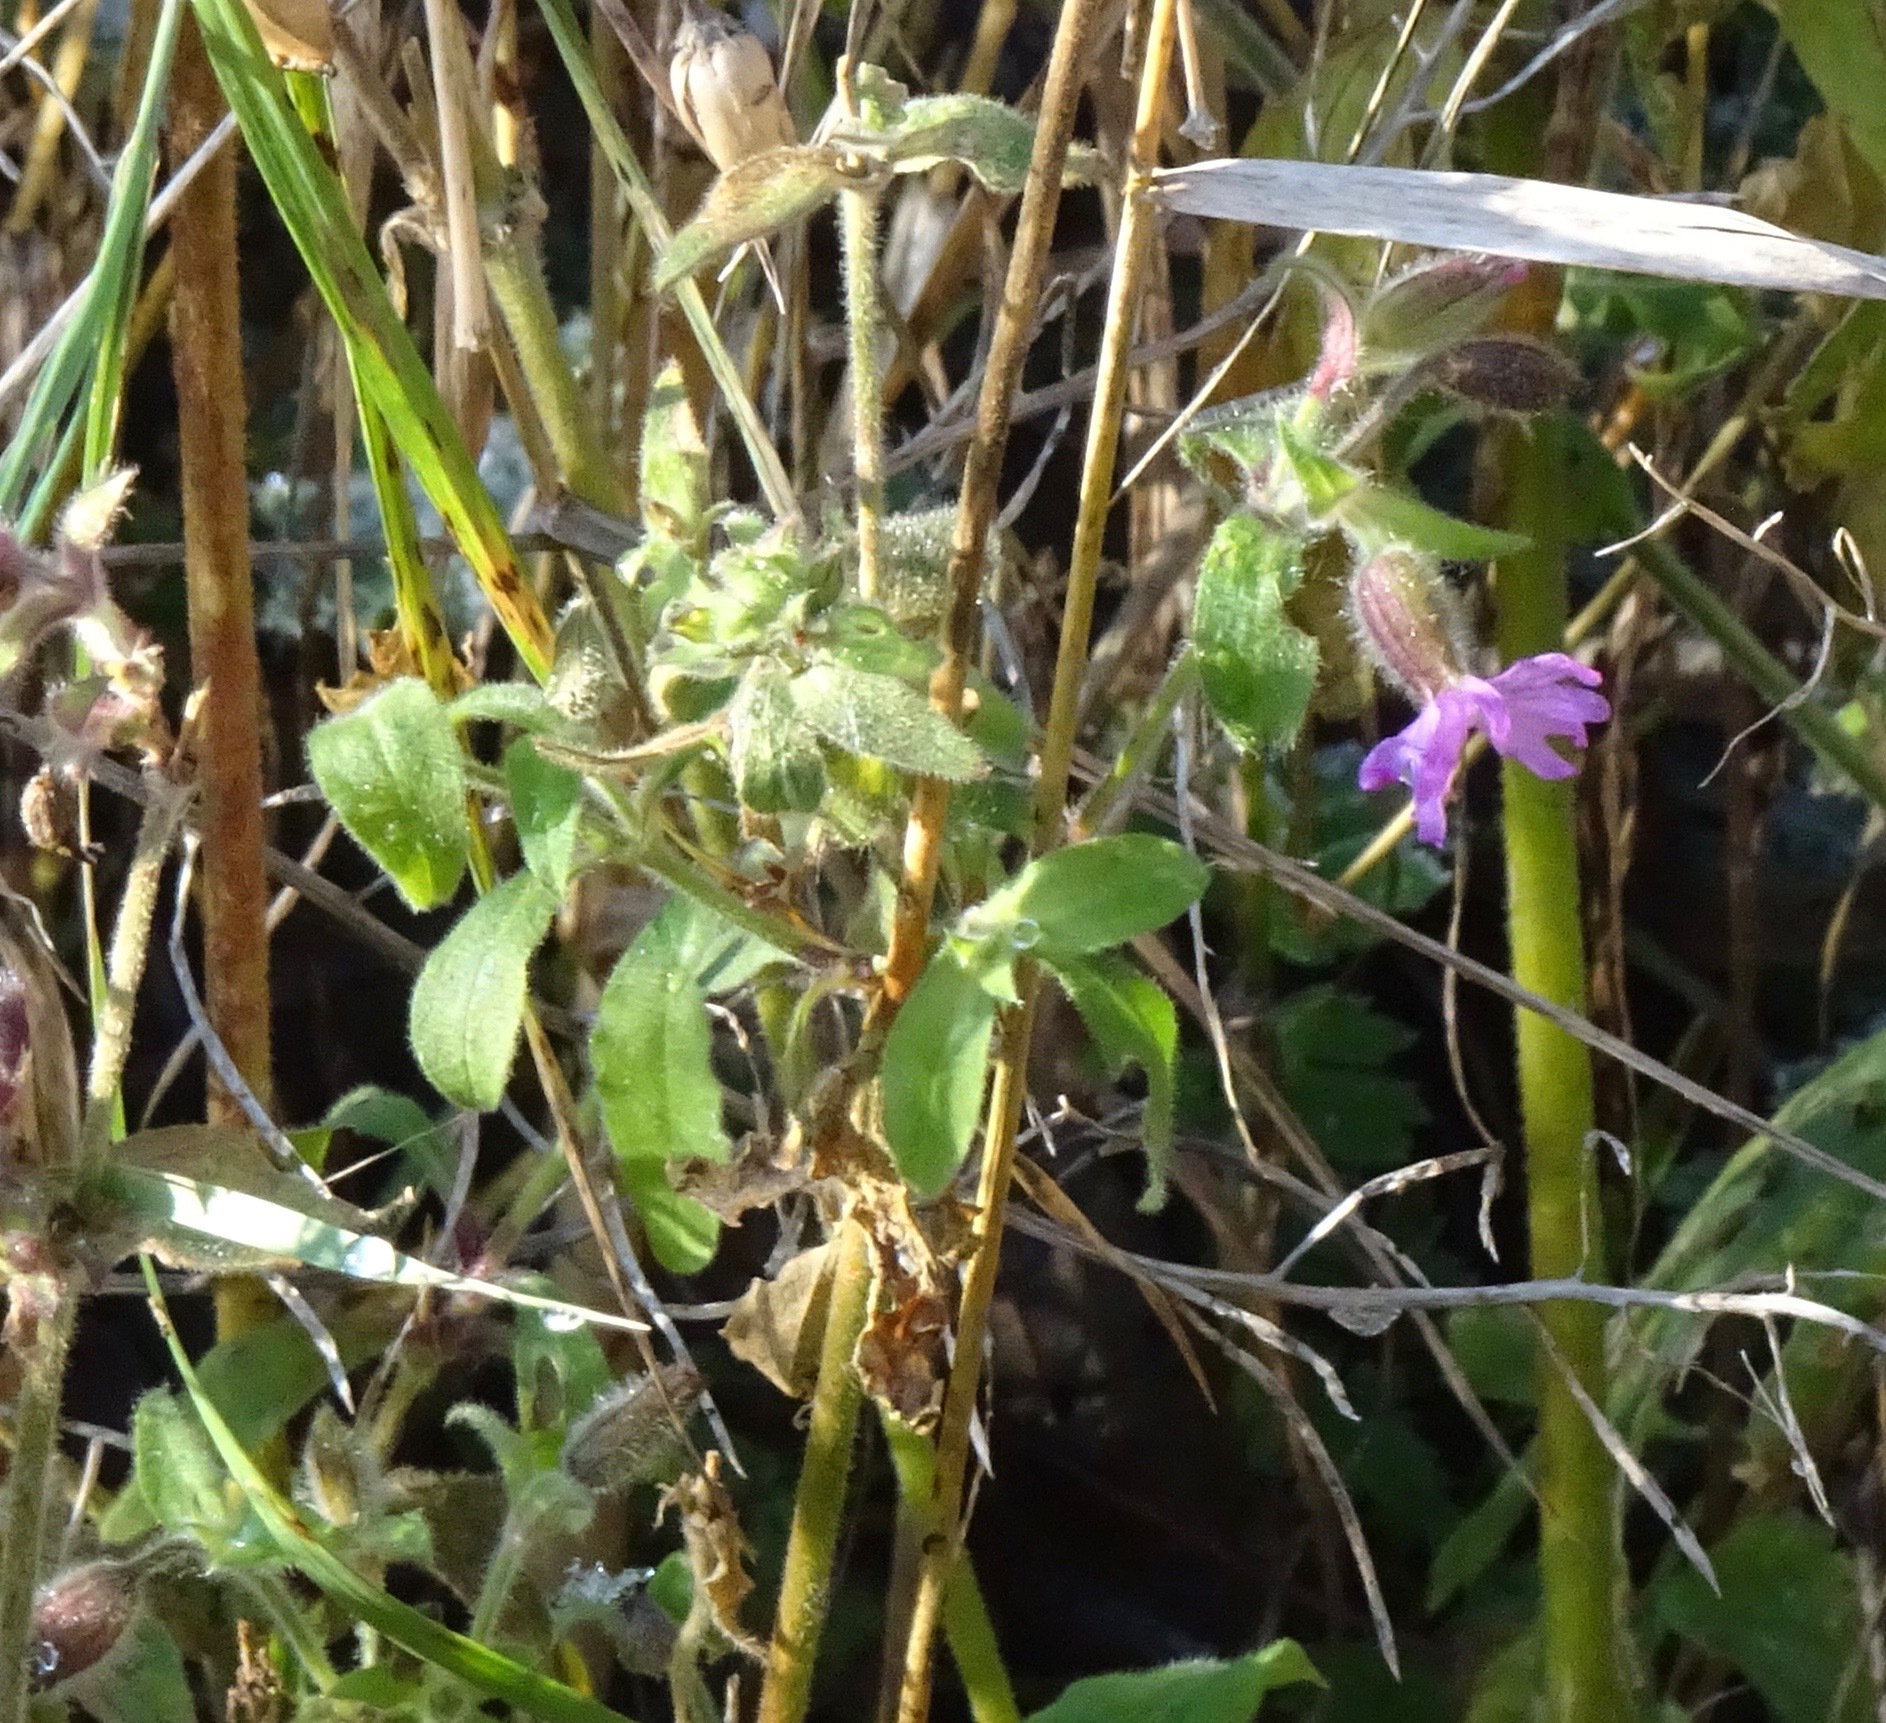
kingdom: Plantae
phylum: Tracheophyta
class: Magnoliopsida
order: Caryophyllales
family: Caryophyllaceae
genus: Silene
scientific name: Silene dioica
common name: Red campion
